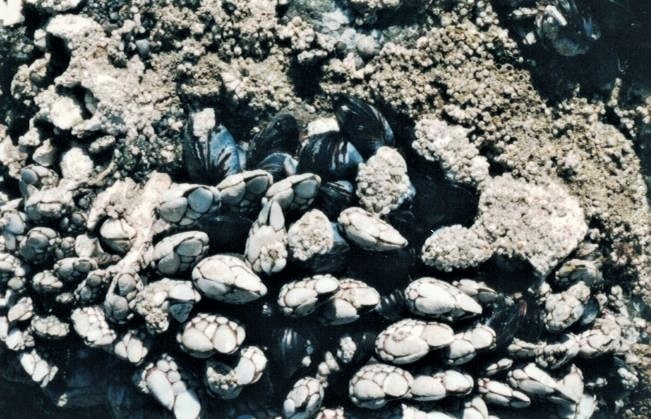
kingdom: Animalia
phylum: Arthropoda
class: Maxillopoda
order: Pedunculata
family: Pollicipedidae
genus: Pollicipes
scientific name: Pollicipes polymerus
